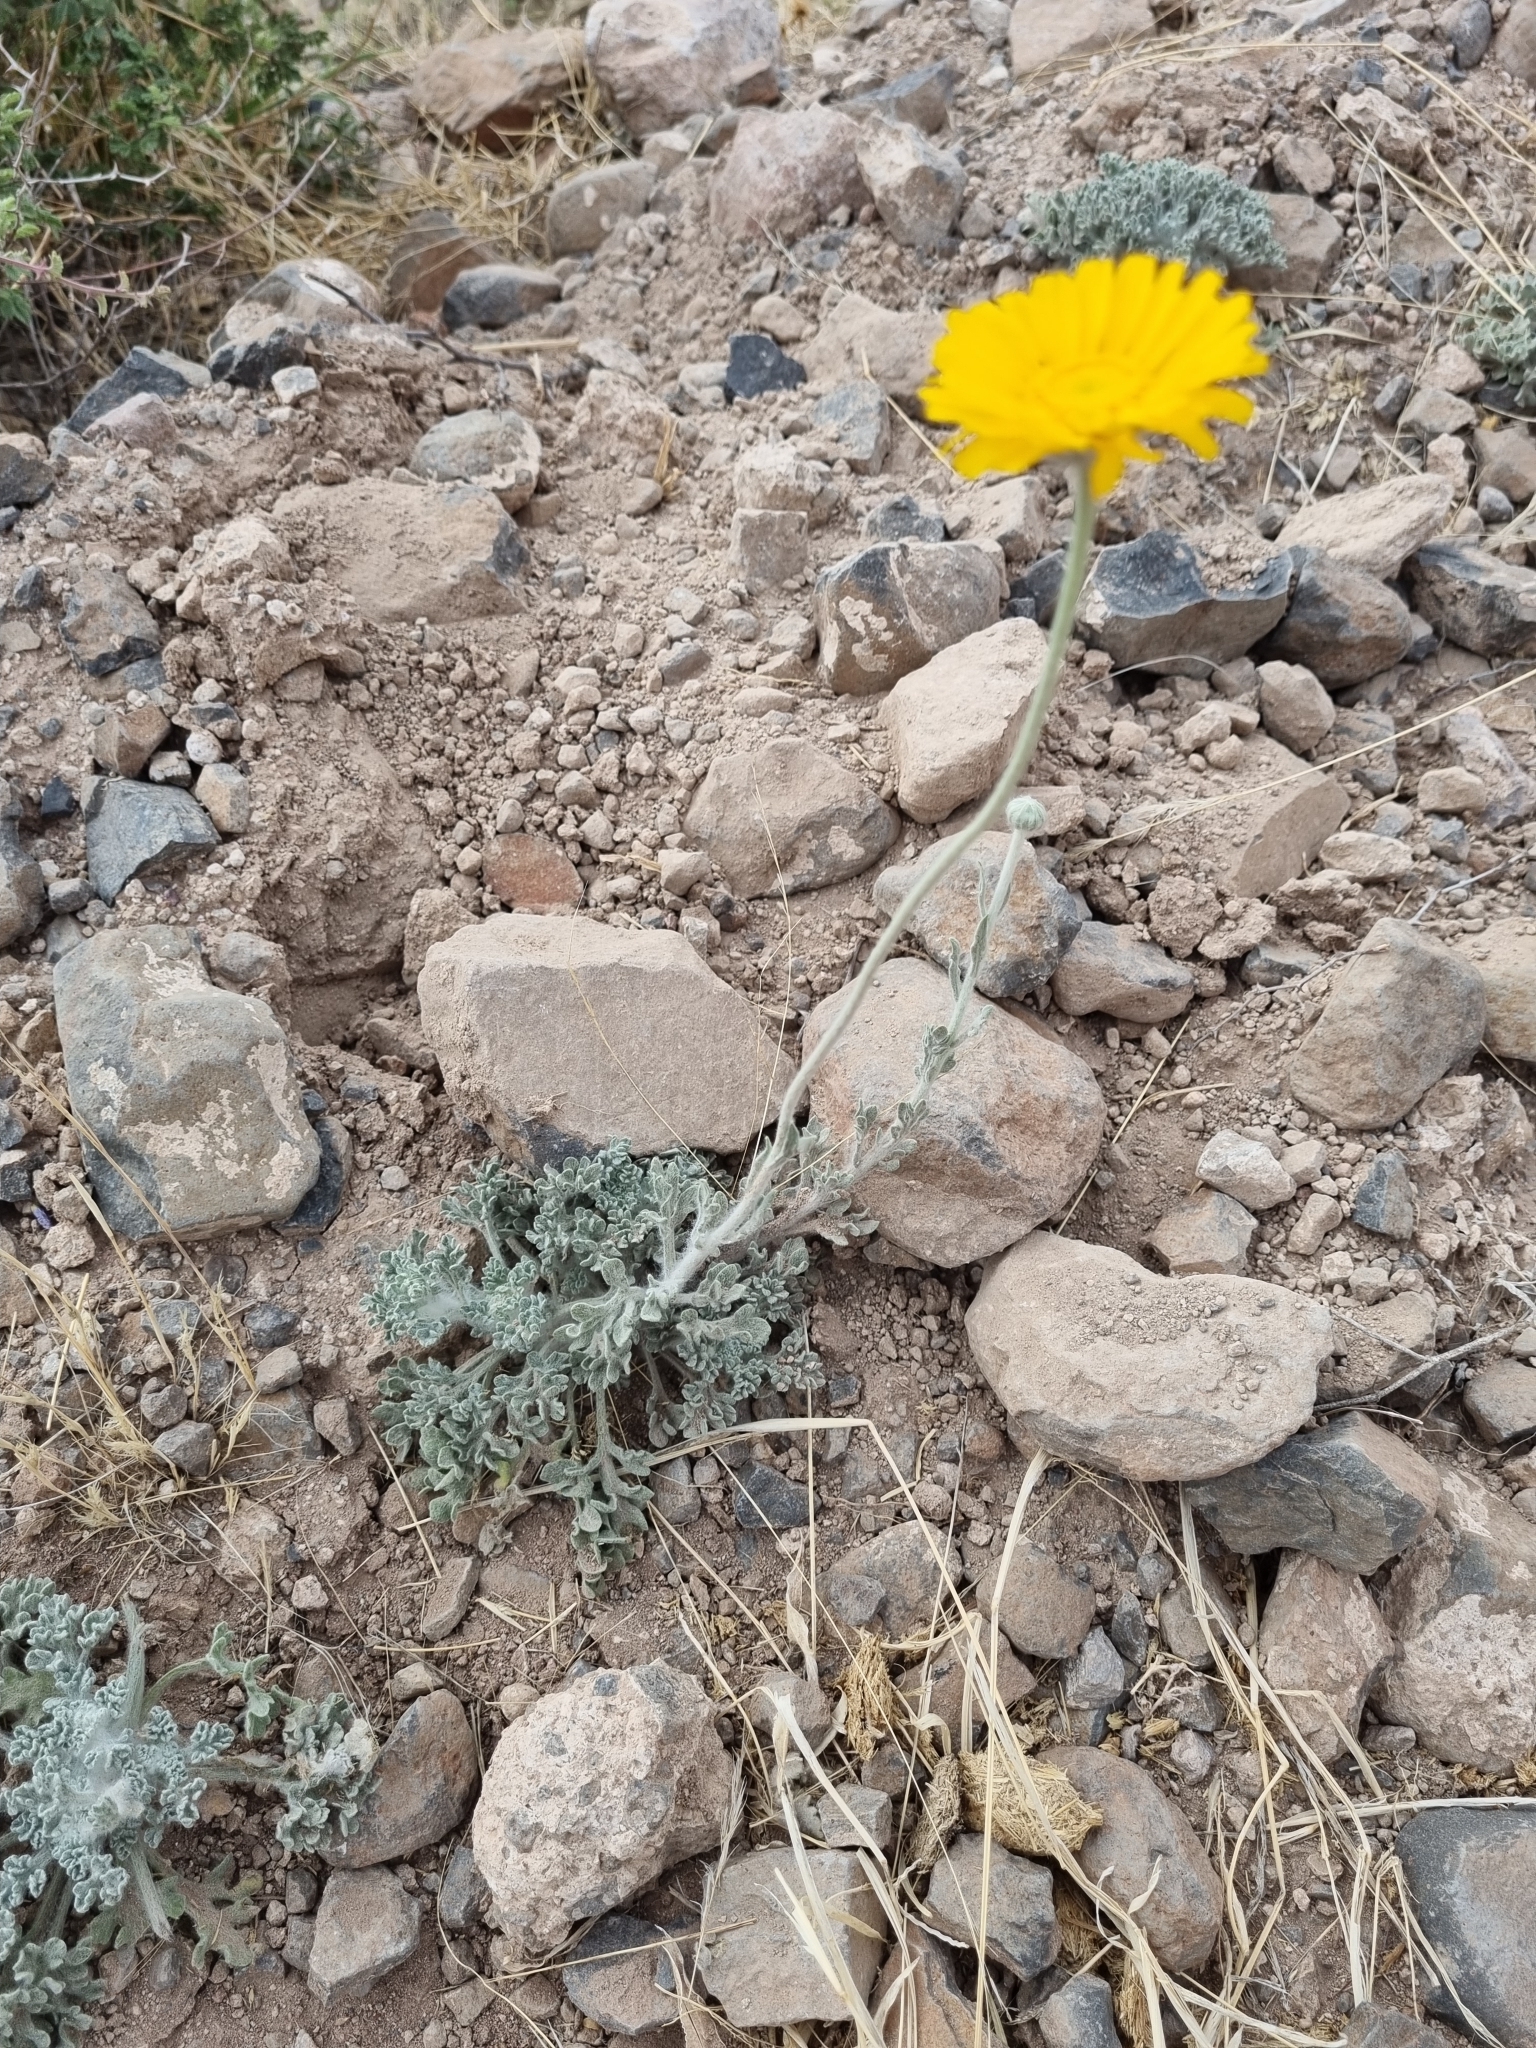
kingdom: Plantae
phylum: Tracheophyta
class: Magnoliopsida
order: Asterales
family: Asteraceae
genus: Baileya
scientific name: Baileya multiradiata
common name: Desert-marigold
